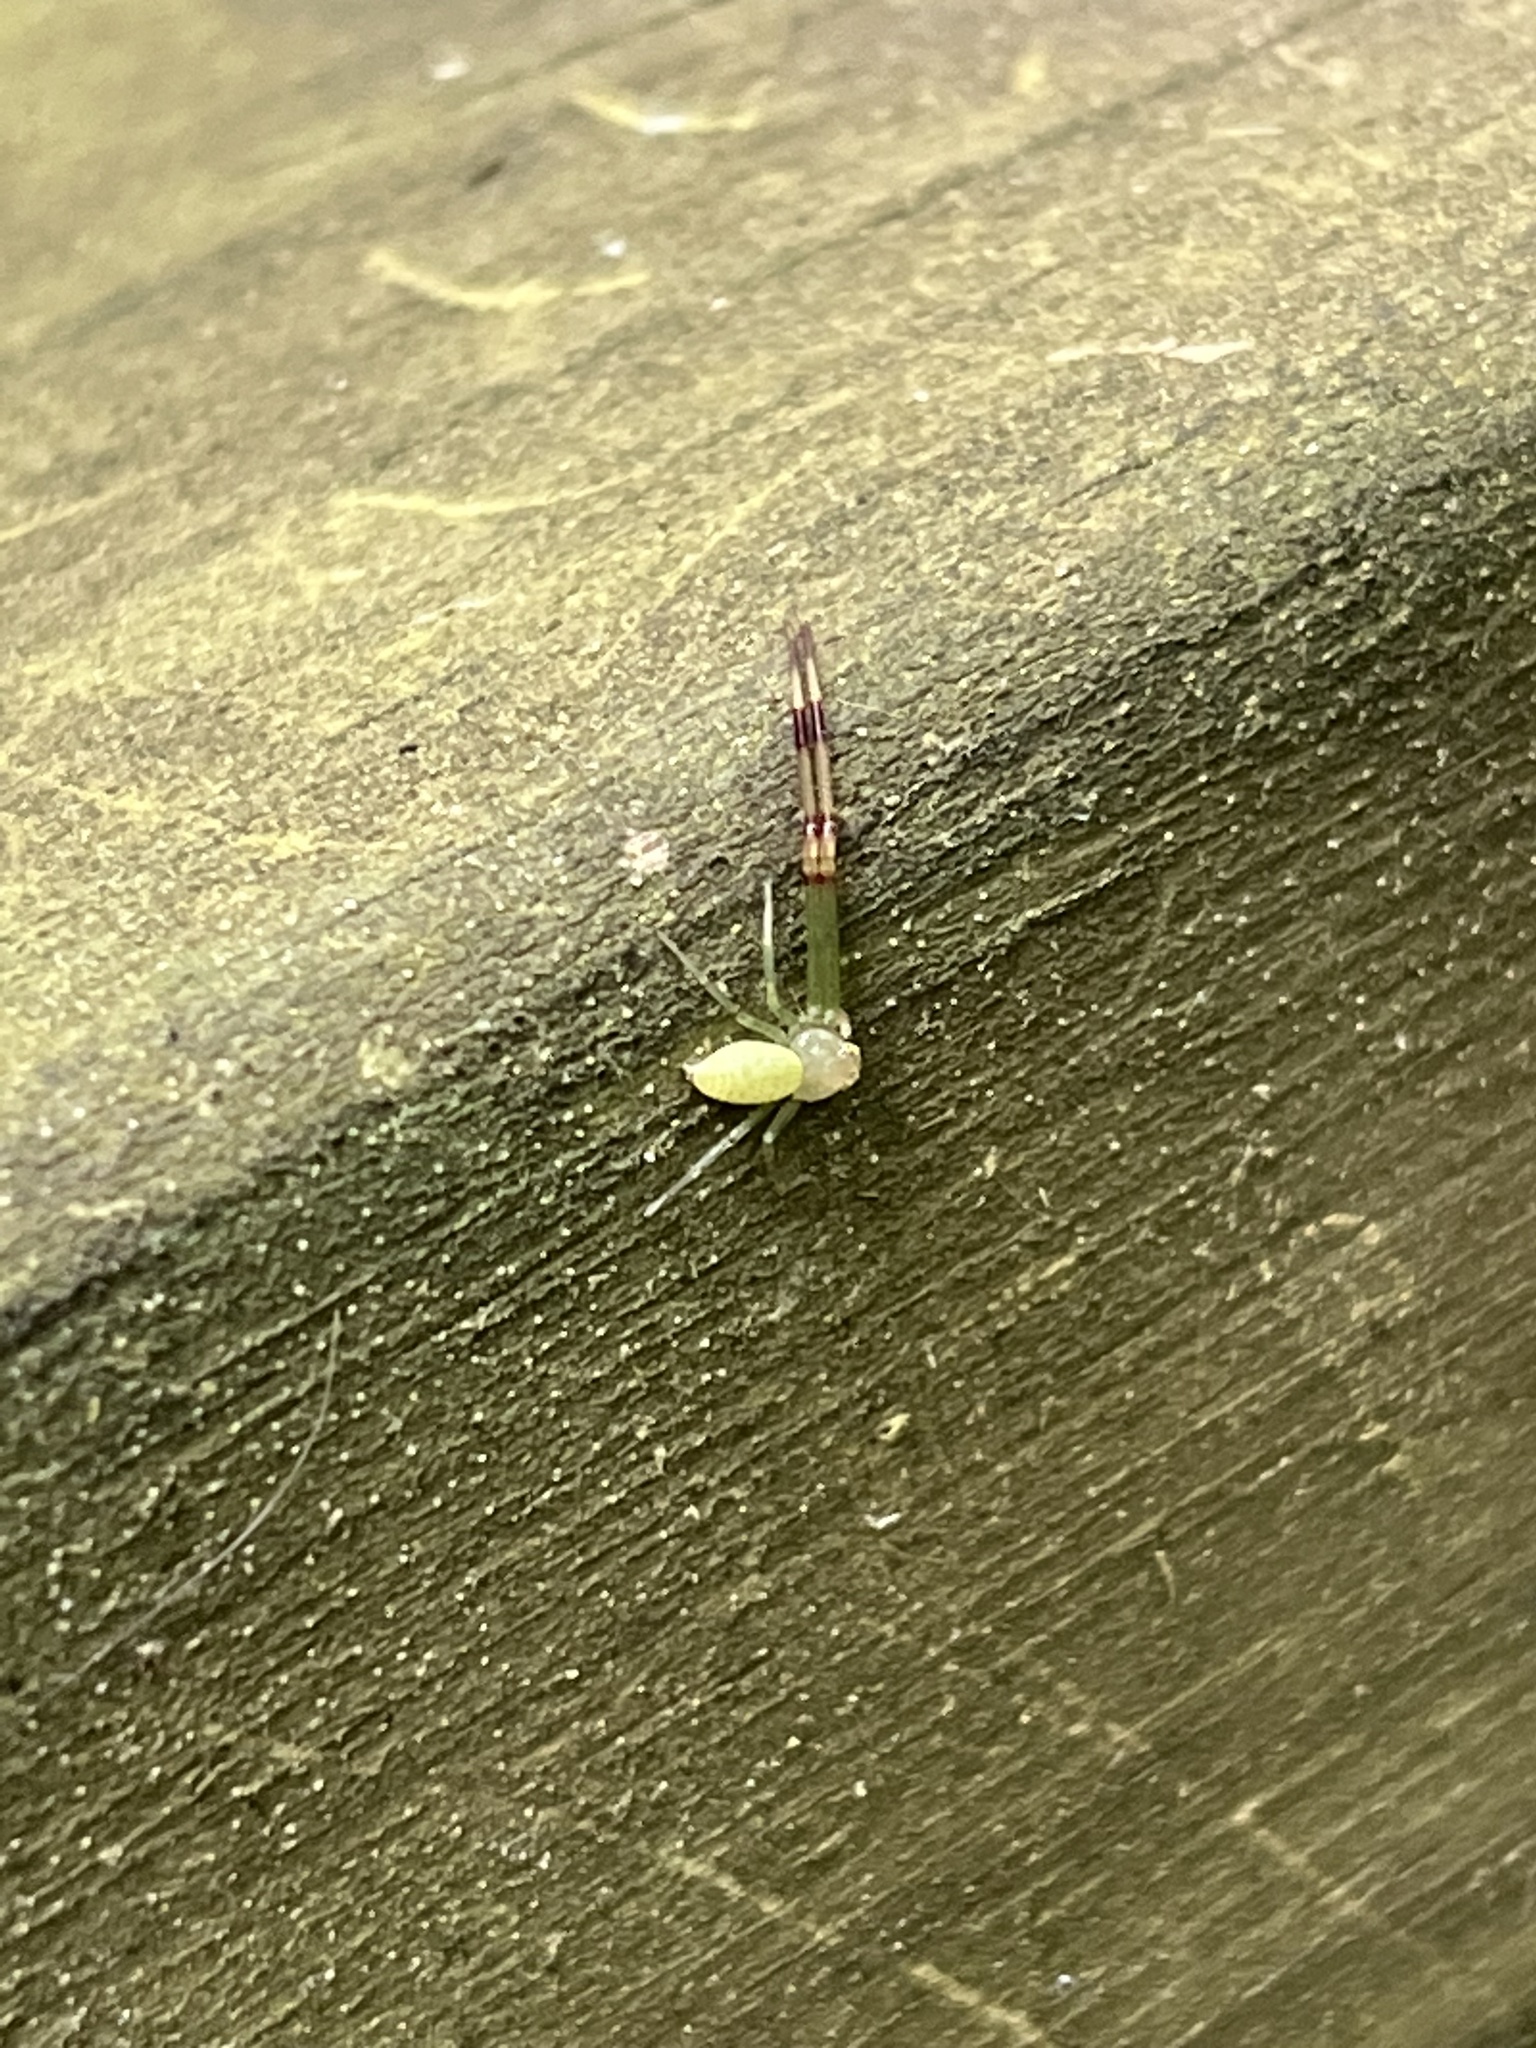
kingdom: Animalia
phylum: Arthropoda
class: Arachnida
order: Araneae
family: Thomisidae
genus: Misumessus
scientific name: Misumessus oblongus
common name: American green crab spider
